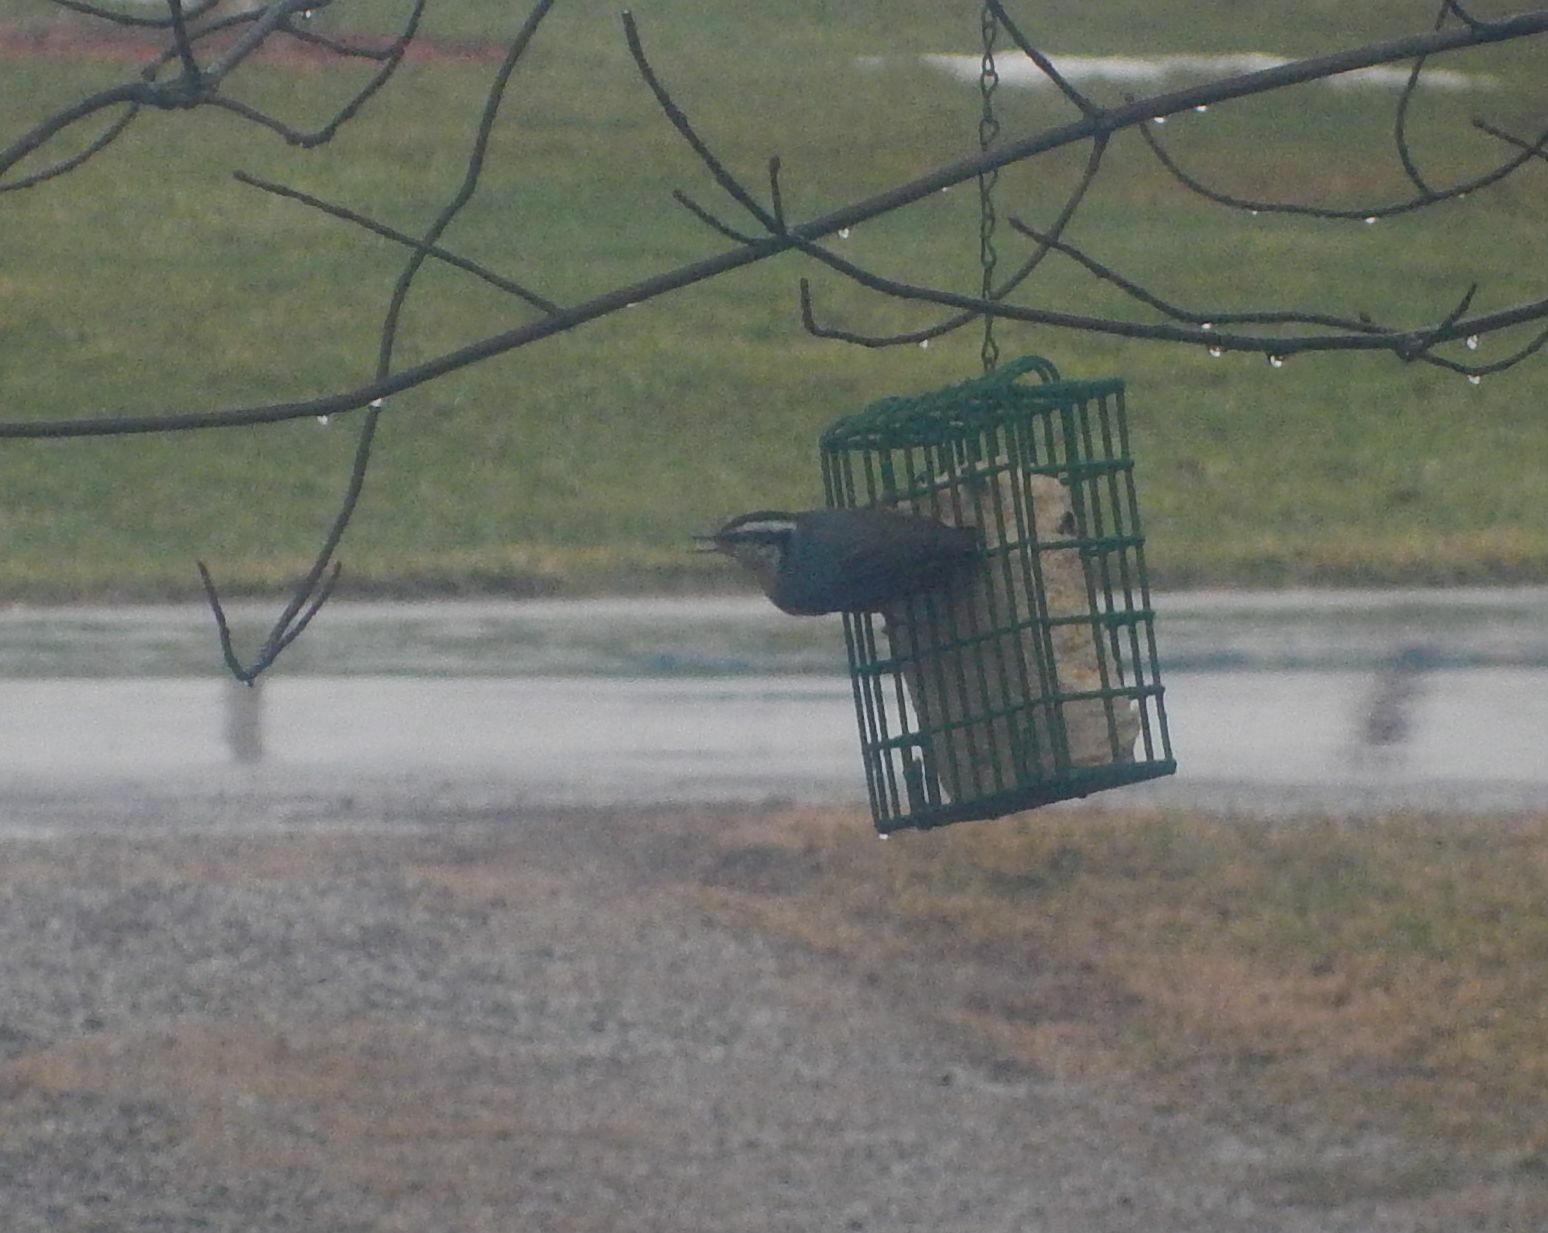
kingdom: Animalia
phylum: Chordata
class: Aves
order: Passeriformes
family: Sittidae
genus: Sitta
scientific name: Sitta canadensis
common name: Red-breasted nuthatch
